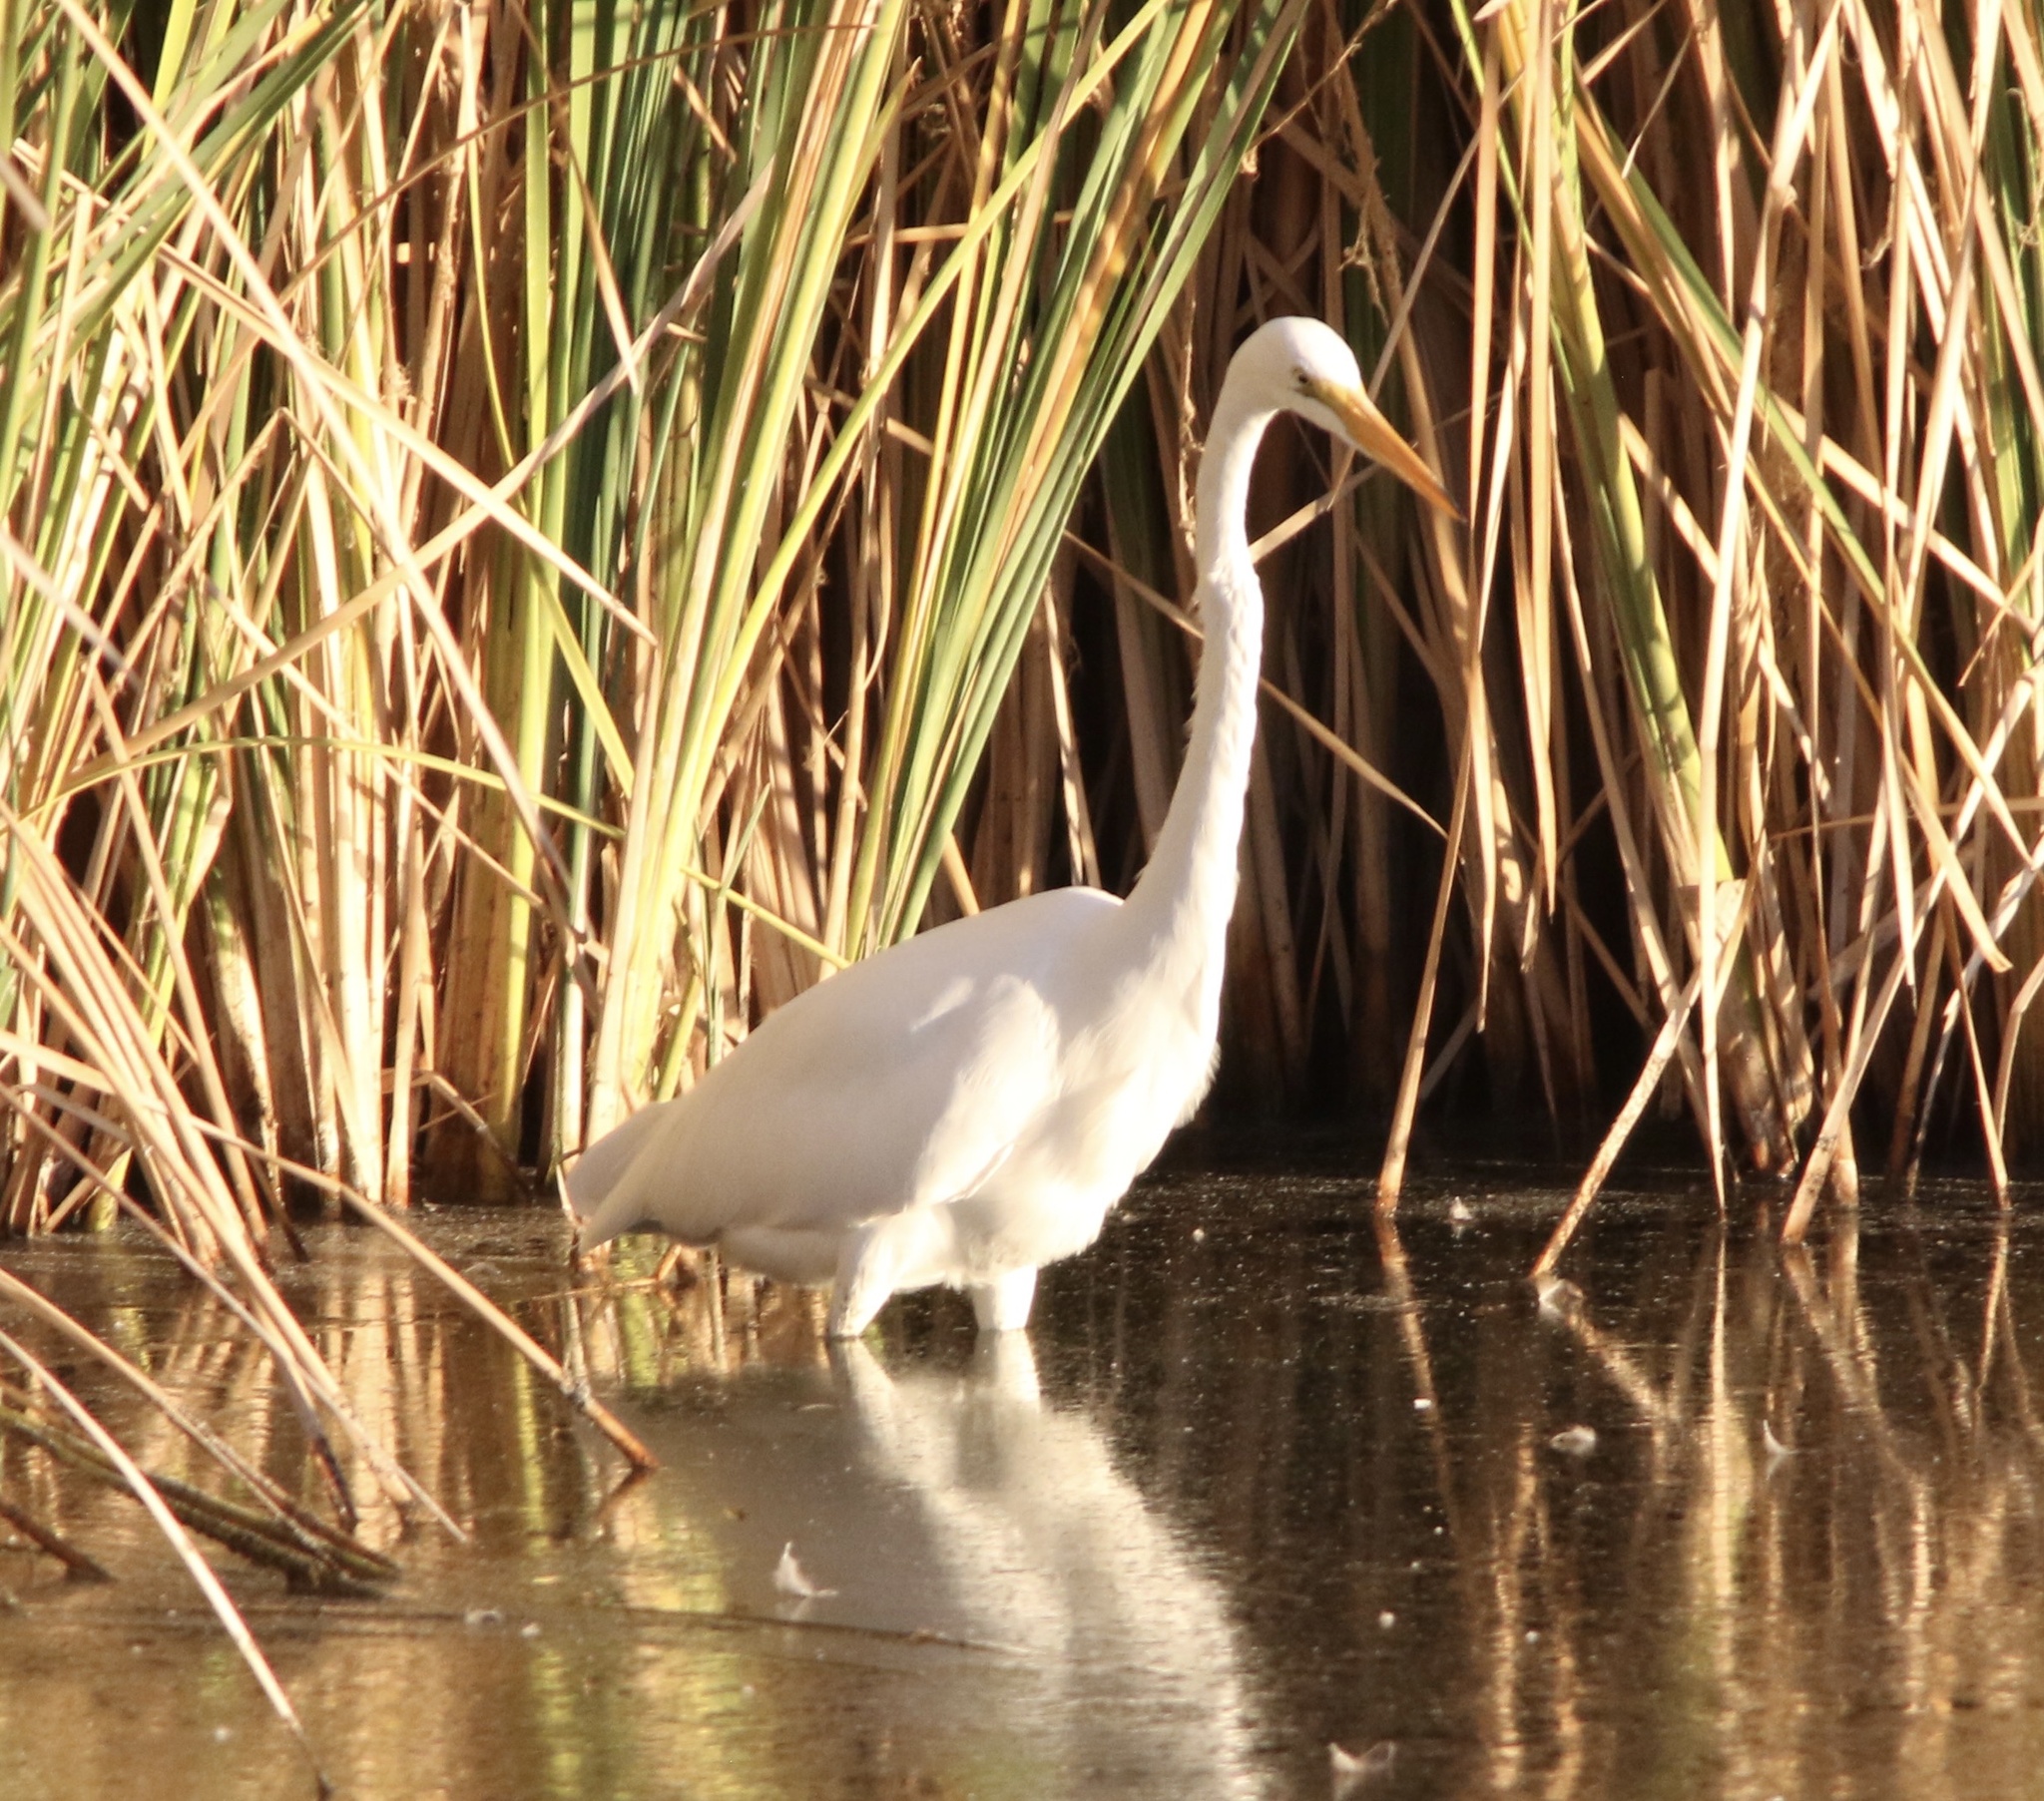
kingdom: Animalia
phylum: Chordata
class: Aves
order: Pelecaniformes
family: Ardeidae
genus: Ardea
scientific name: Ardea alba
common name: Great egret
